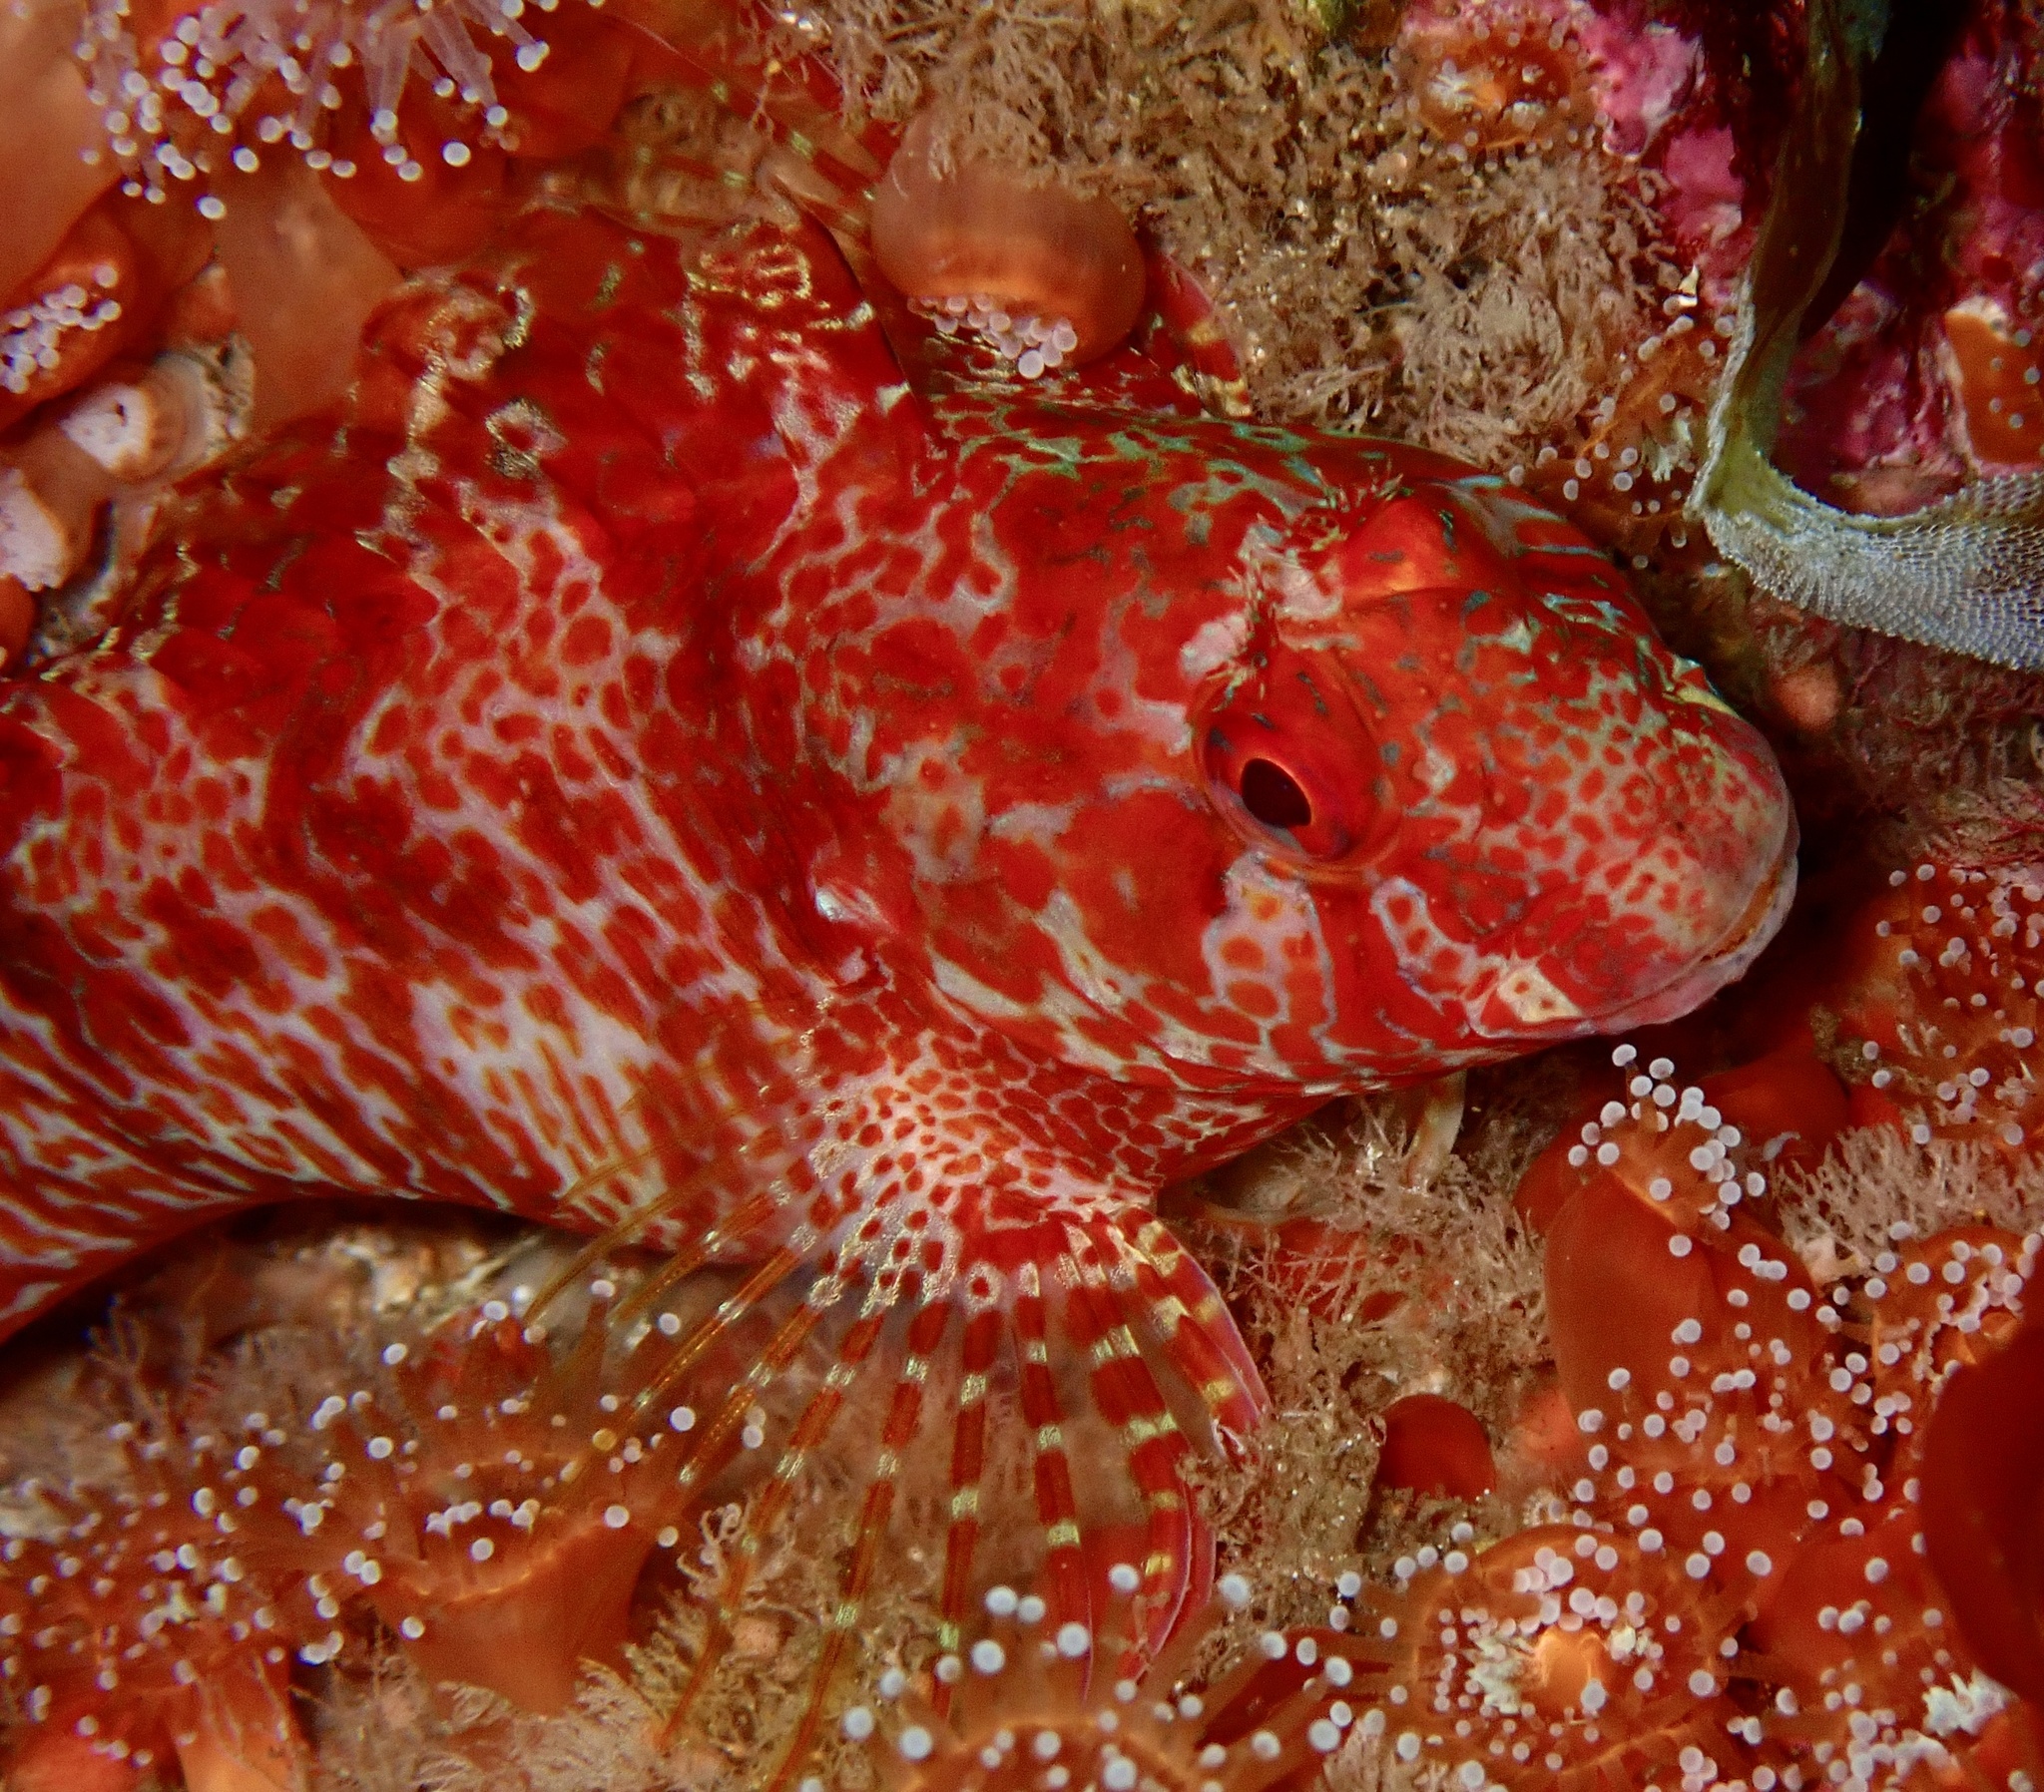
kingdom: Animalia
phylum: Chordata
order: Perciformes
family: Blenniidae
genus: Parablennius
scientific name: Parablennius ruber
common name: Portuguese blenny
